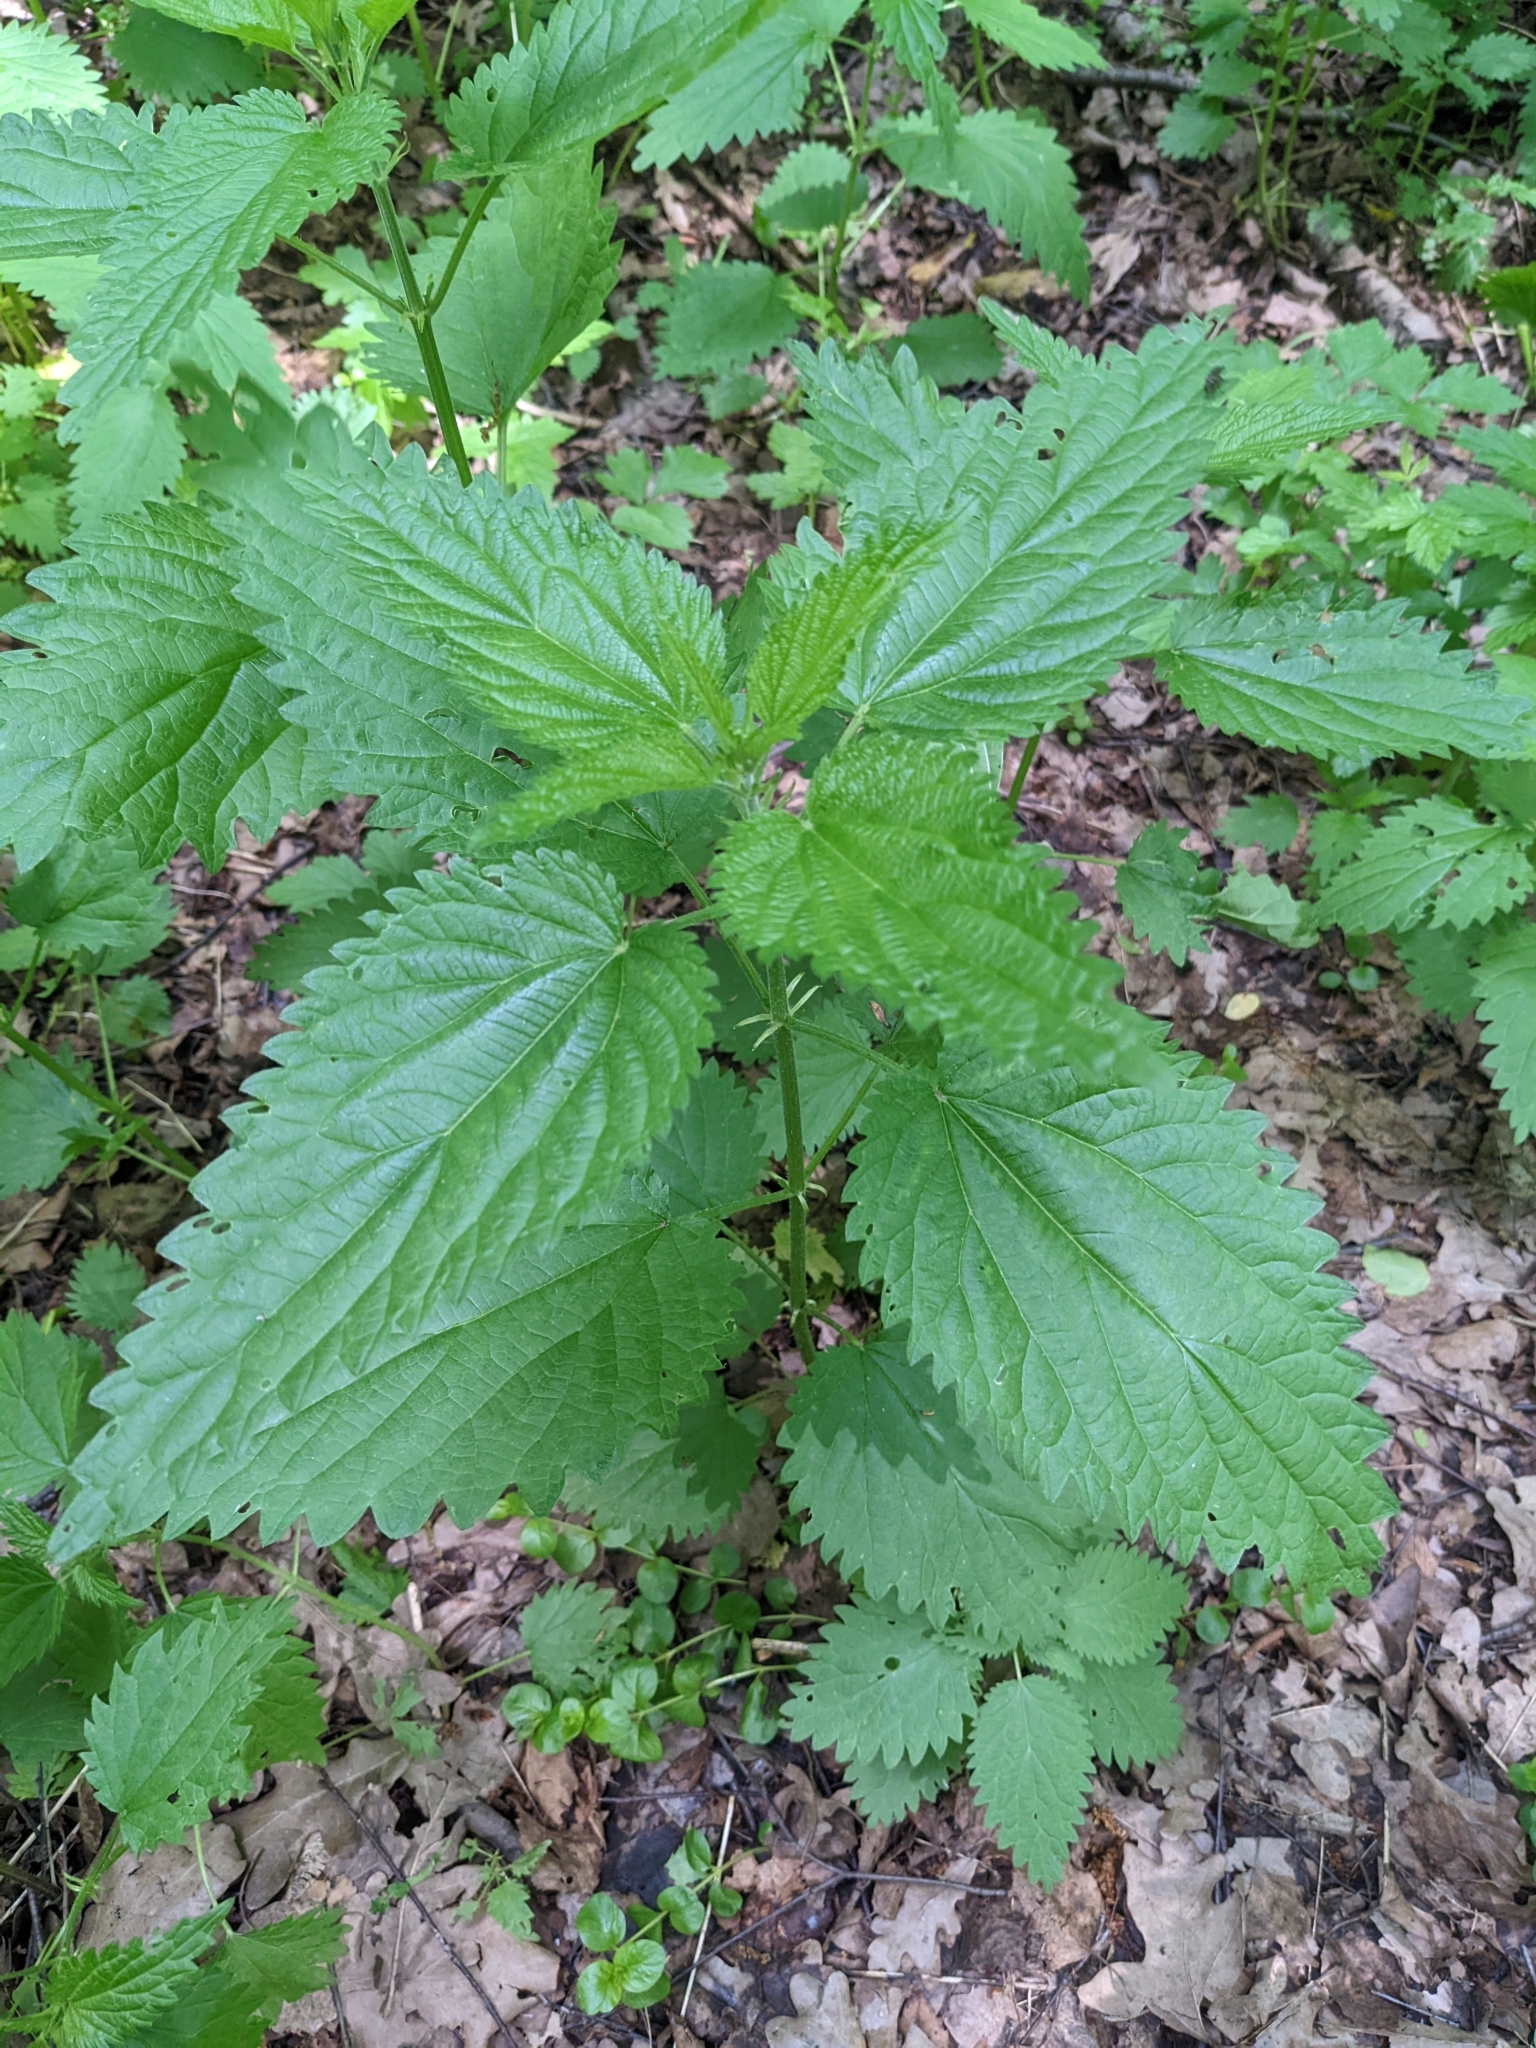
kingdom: Plantae
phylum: Tracheophyta
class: Magnoliopsida
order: Rosales
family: Urticaceae
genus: Urtica
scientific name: Urtica dioica
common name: Common nettle
